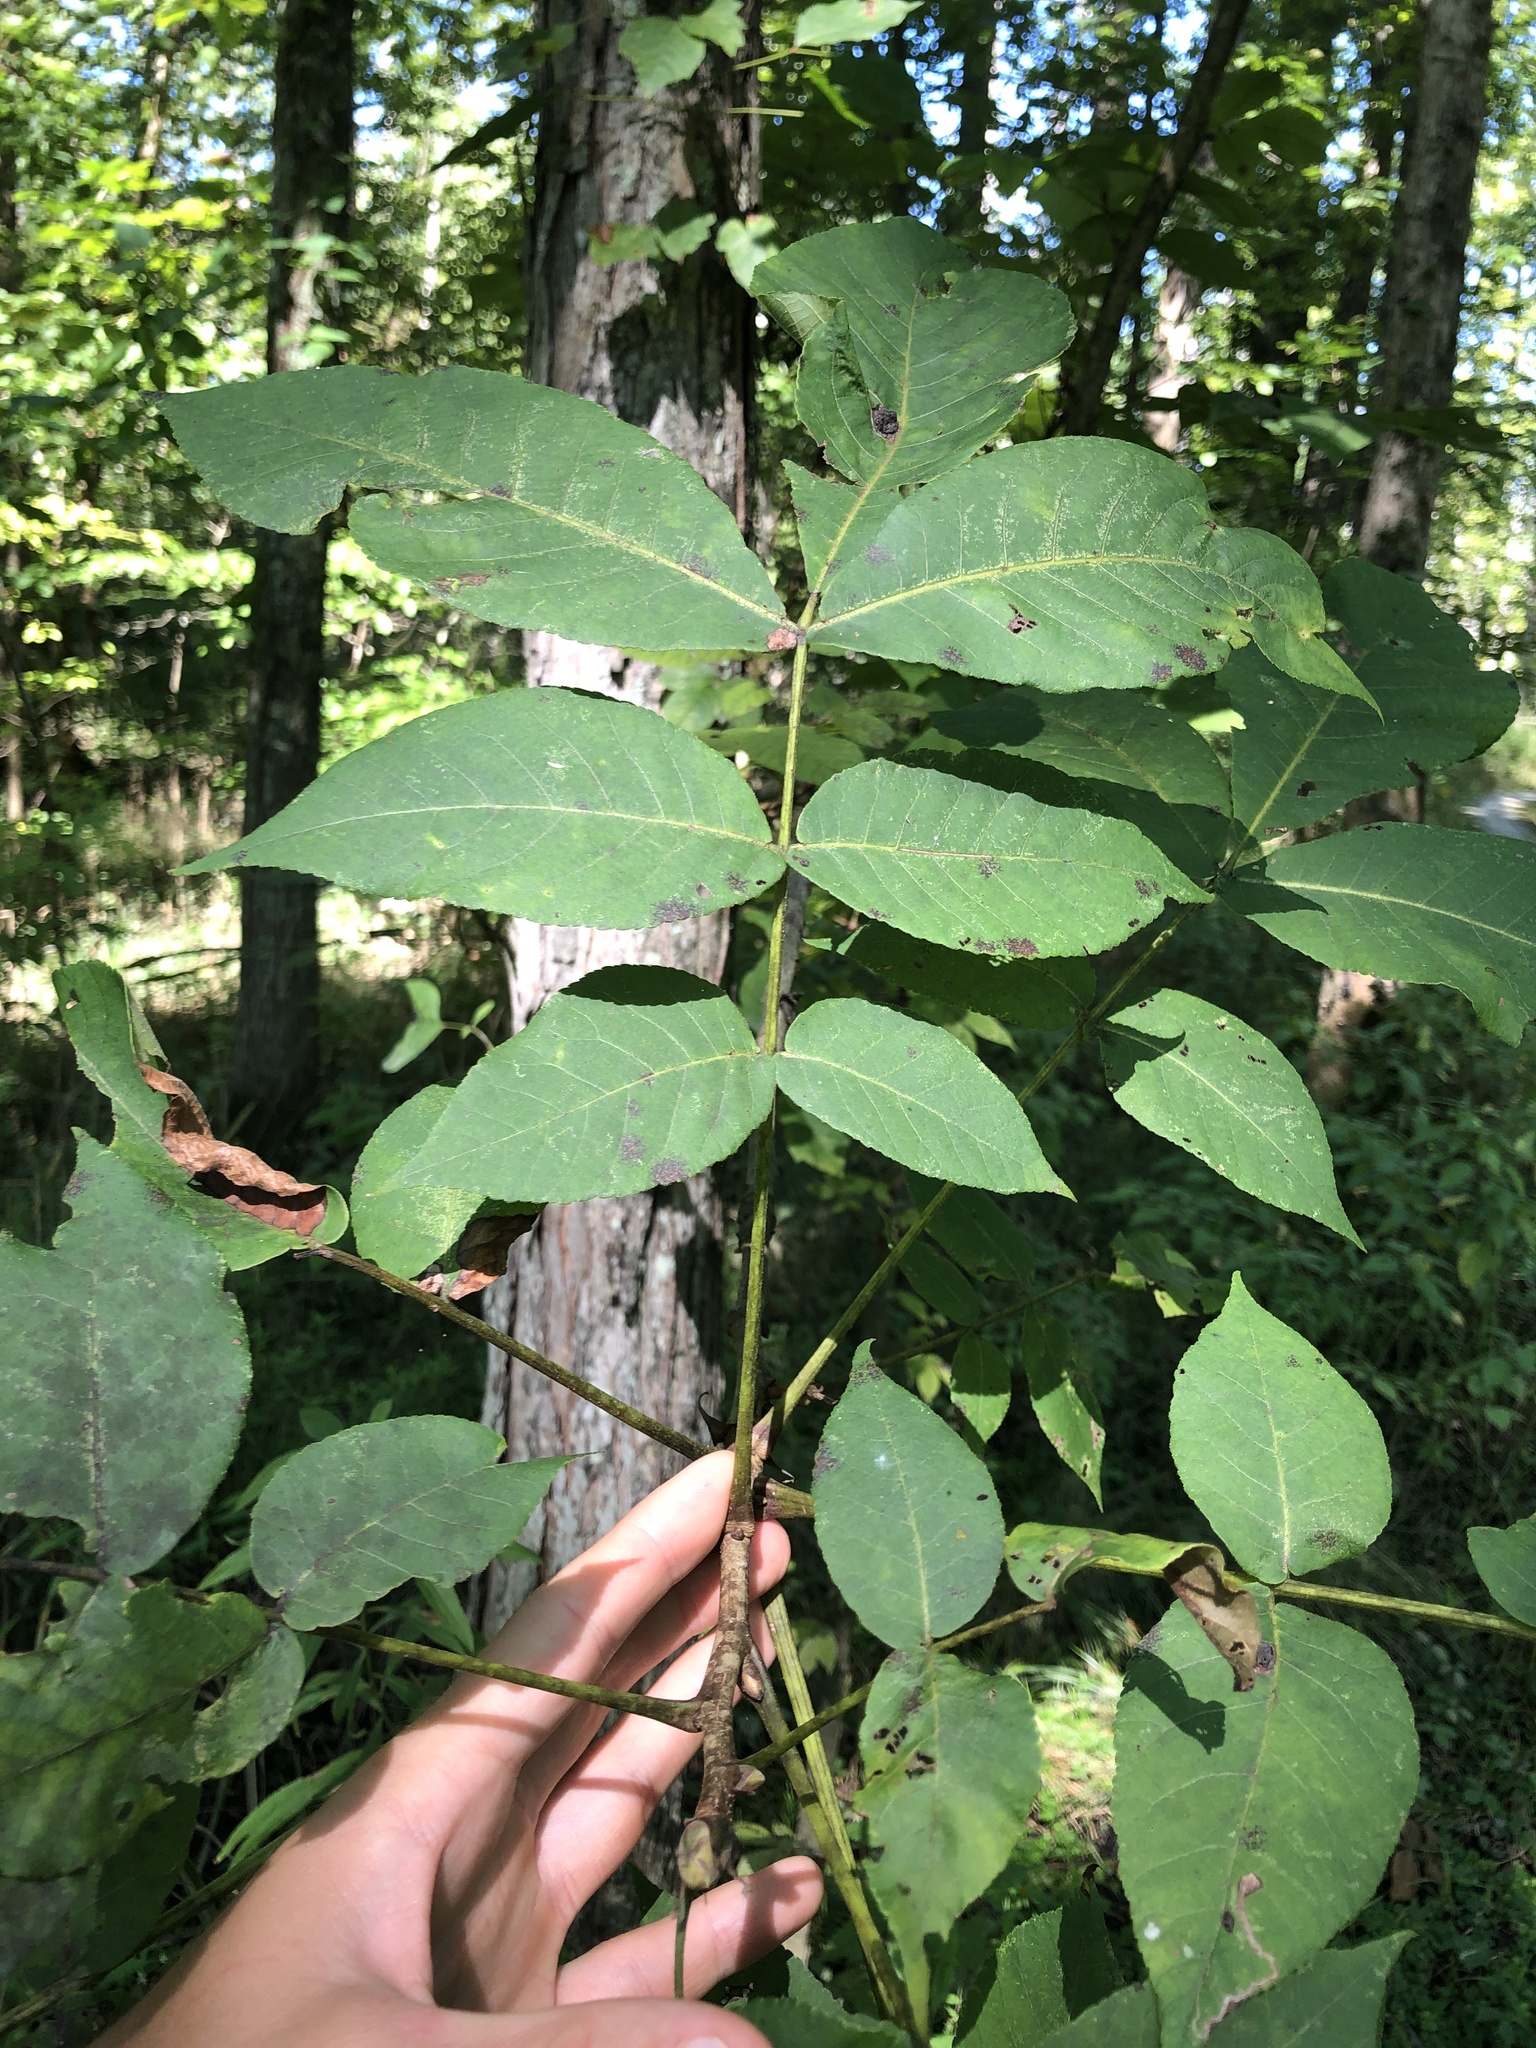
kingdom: Plantae
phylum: Tracheophyta
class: Magnoliopsida
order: Fagales
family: Juglandaceae
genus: Carya
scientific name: Carya laciniosa
